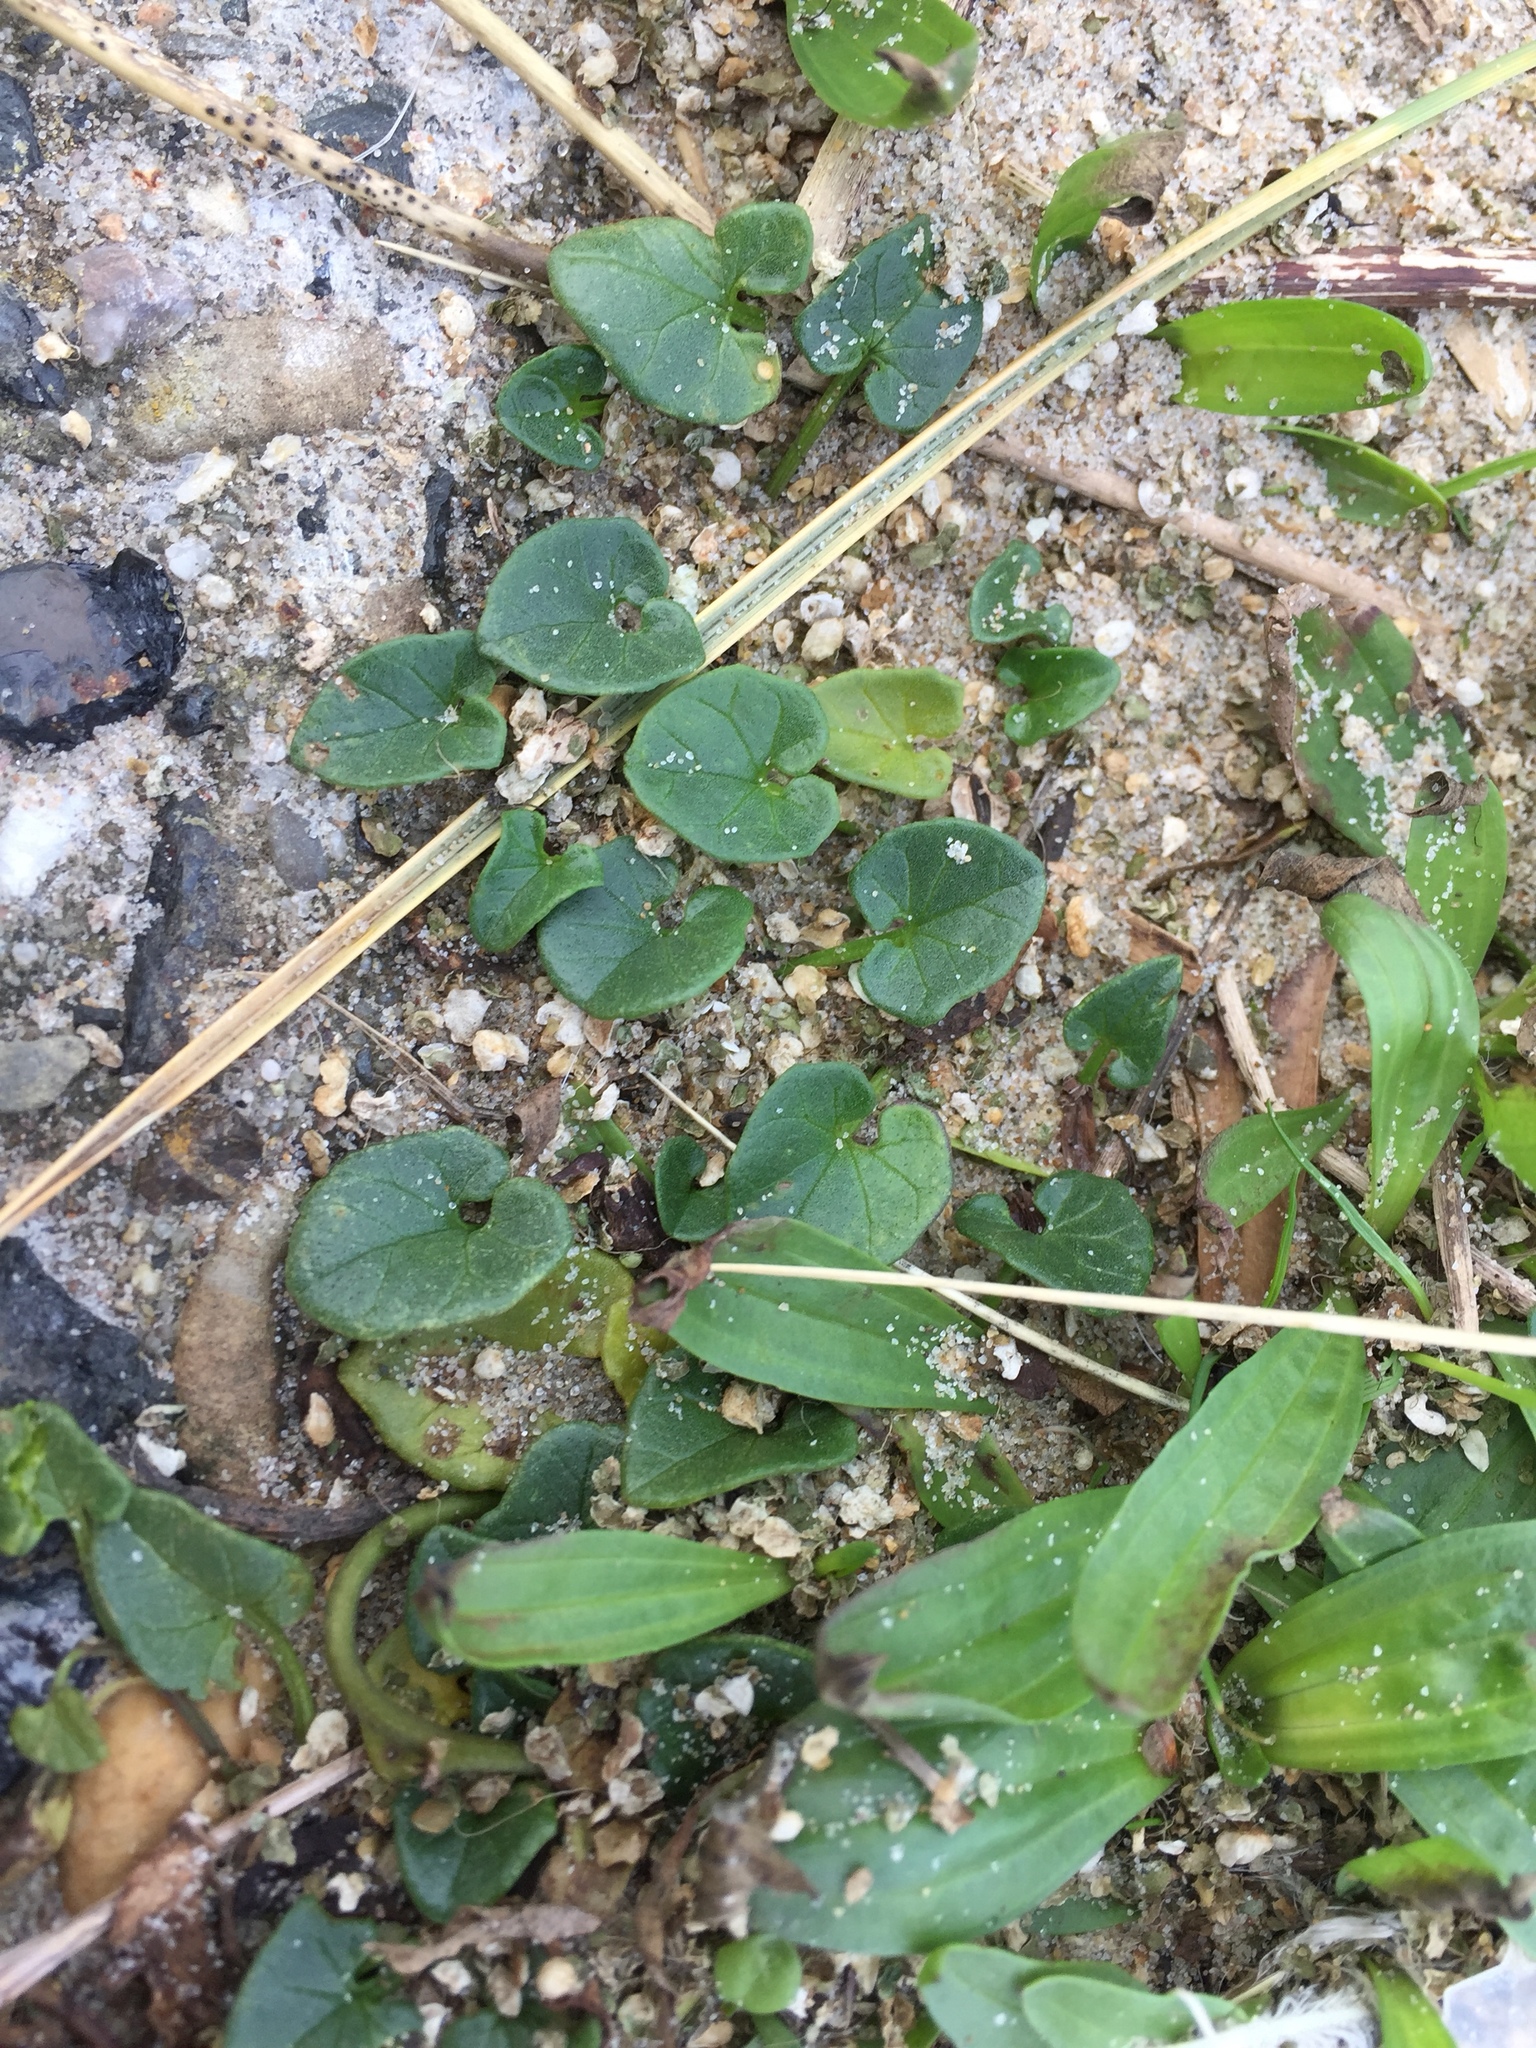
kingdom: Plantae
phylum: Tracheophyta
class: Magnoliopsida
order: Solanales
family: Convolvulaceae
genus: Calystegia
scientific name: Calystegia soldanella
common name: Sea bindweed
